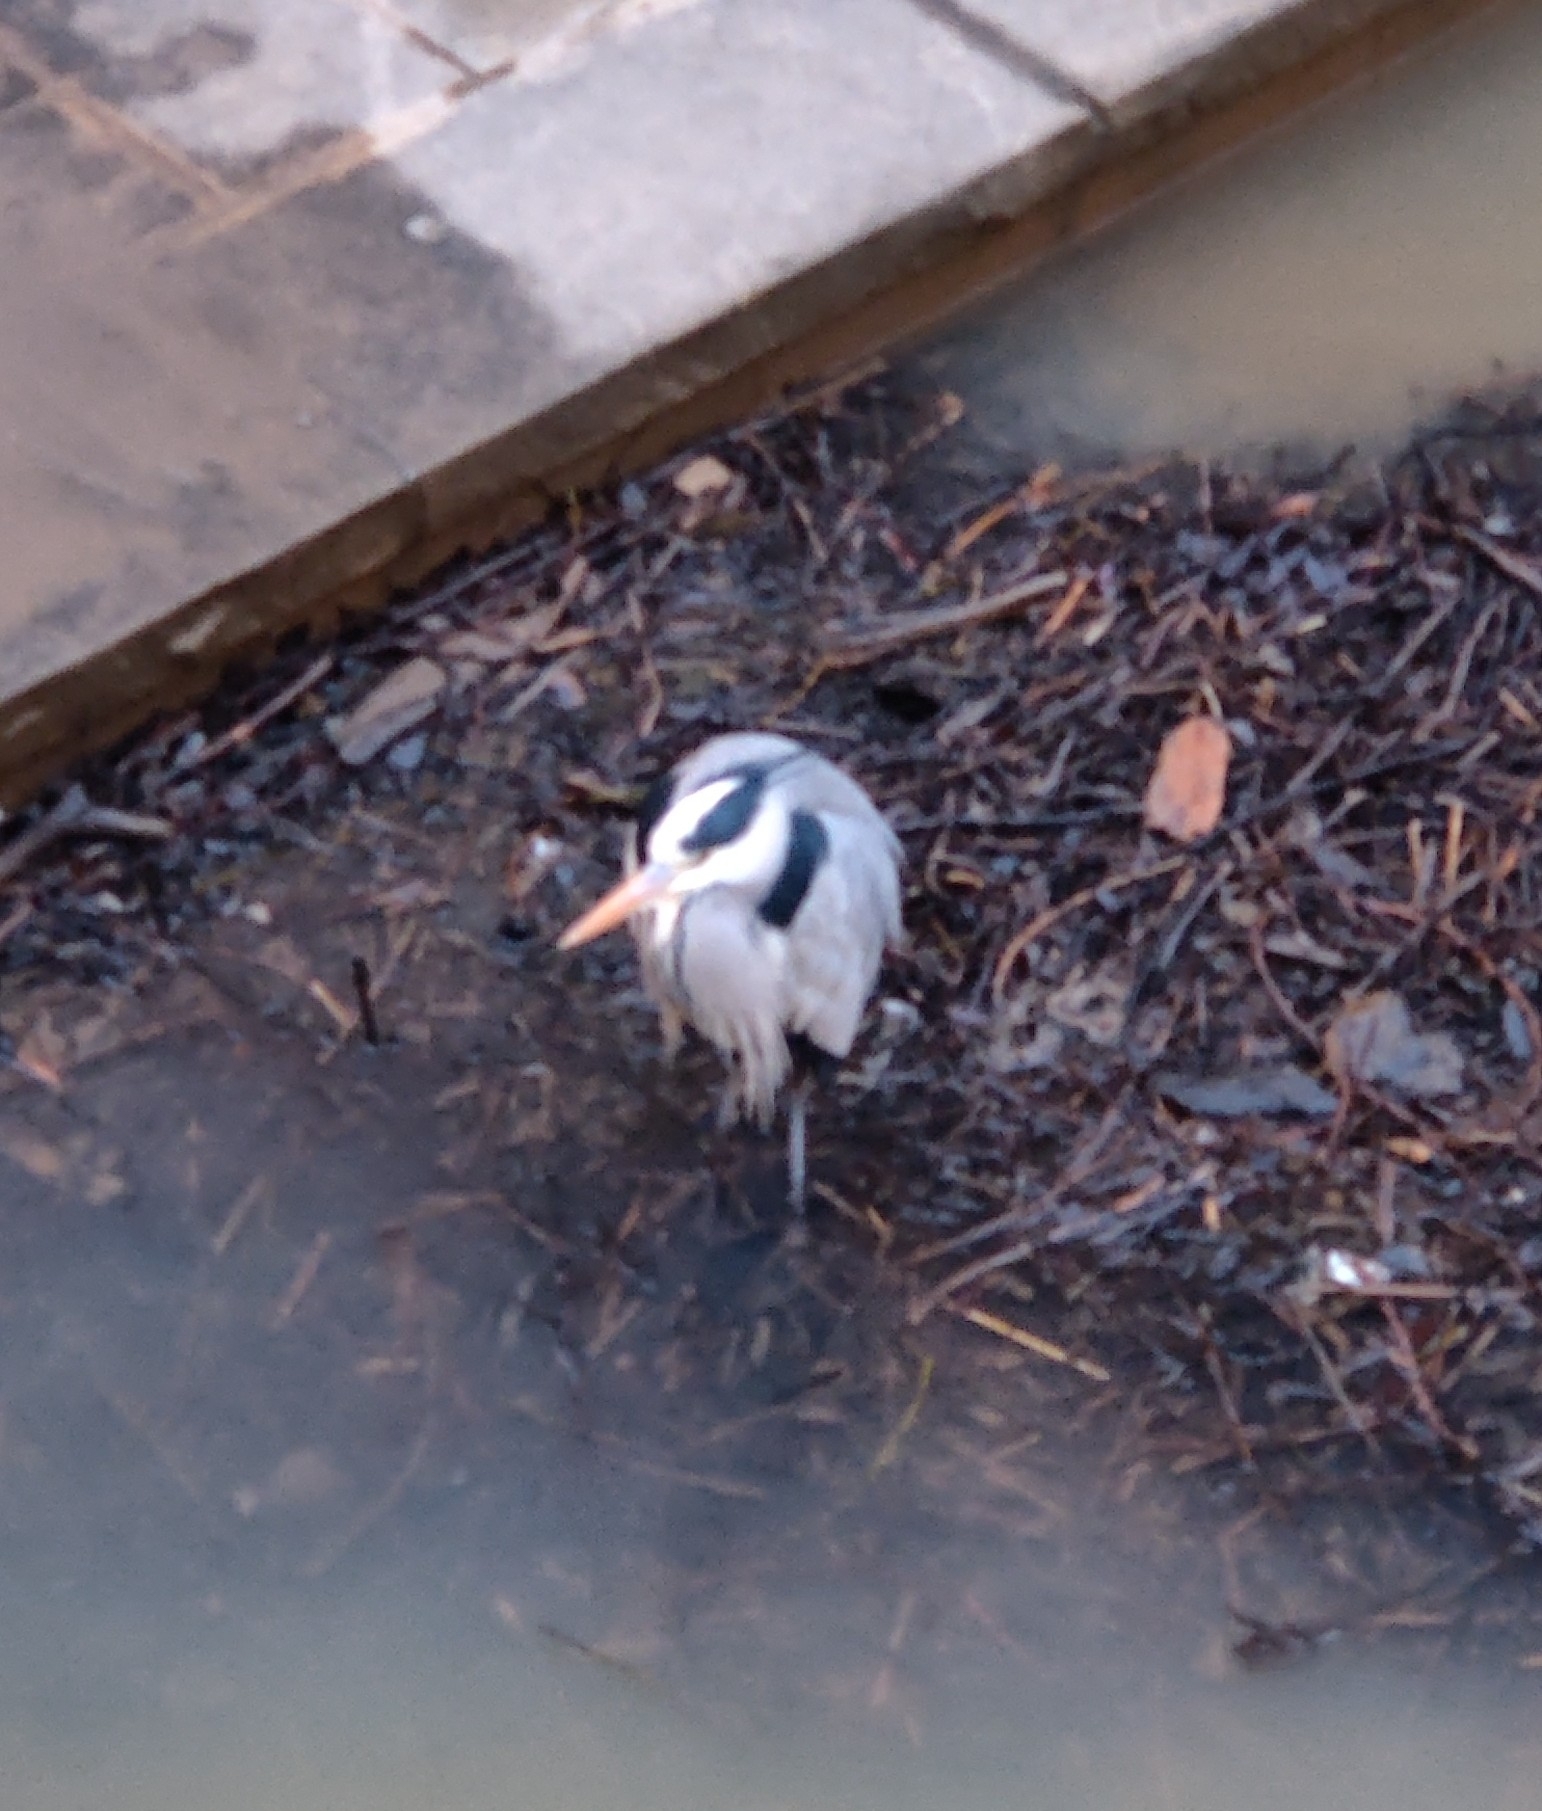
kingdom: Animalia
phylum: Chordata
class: Aves
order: Pelecaniformes
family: Ardeidae
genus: Ardea
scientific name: Ardea cinerea
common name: Grey heron
